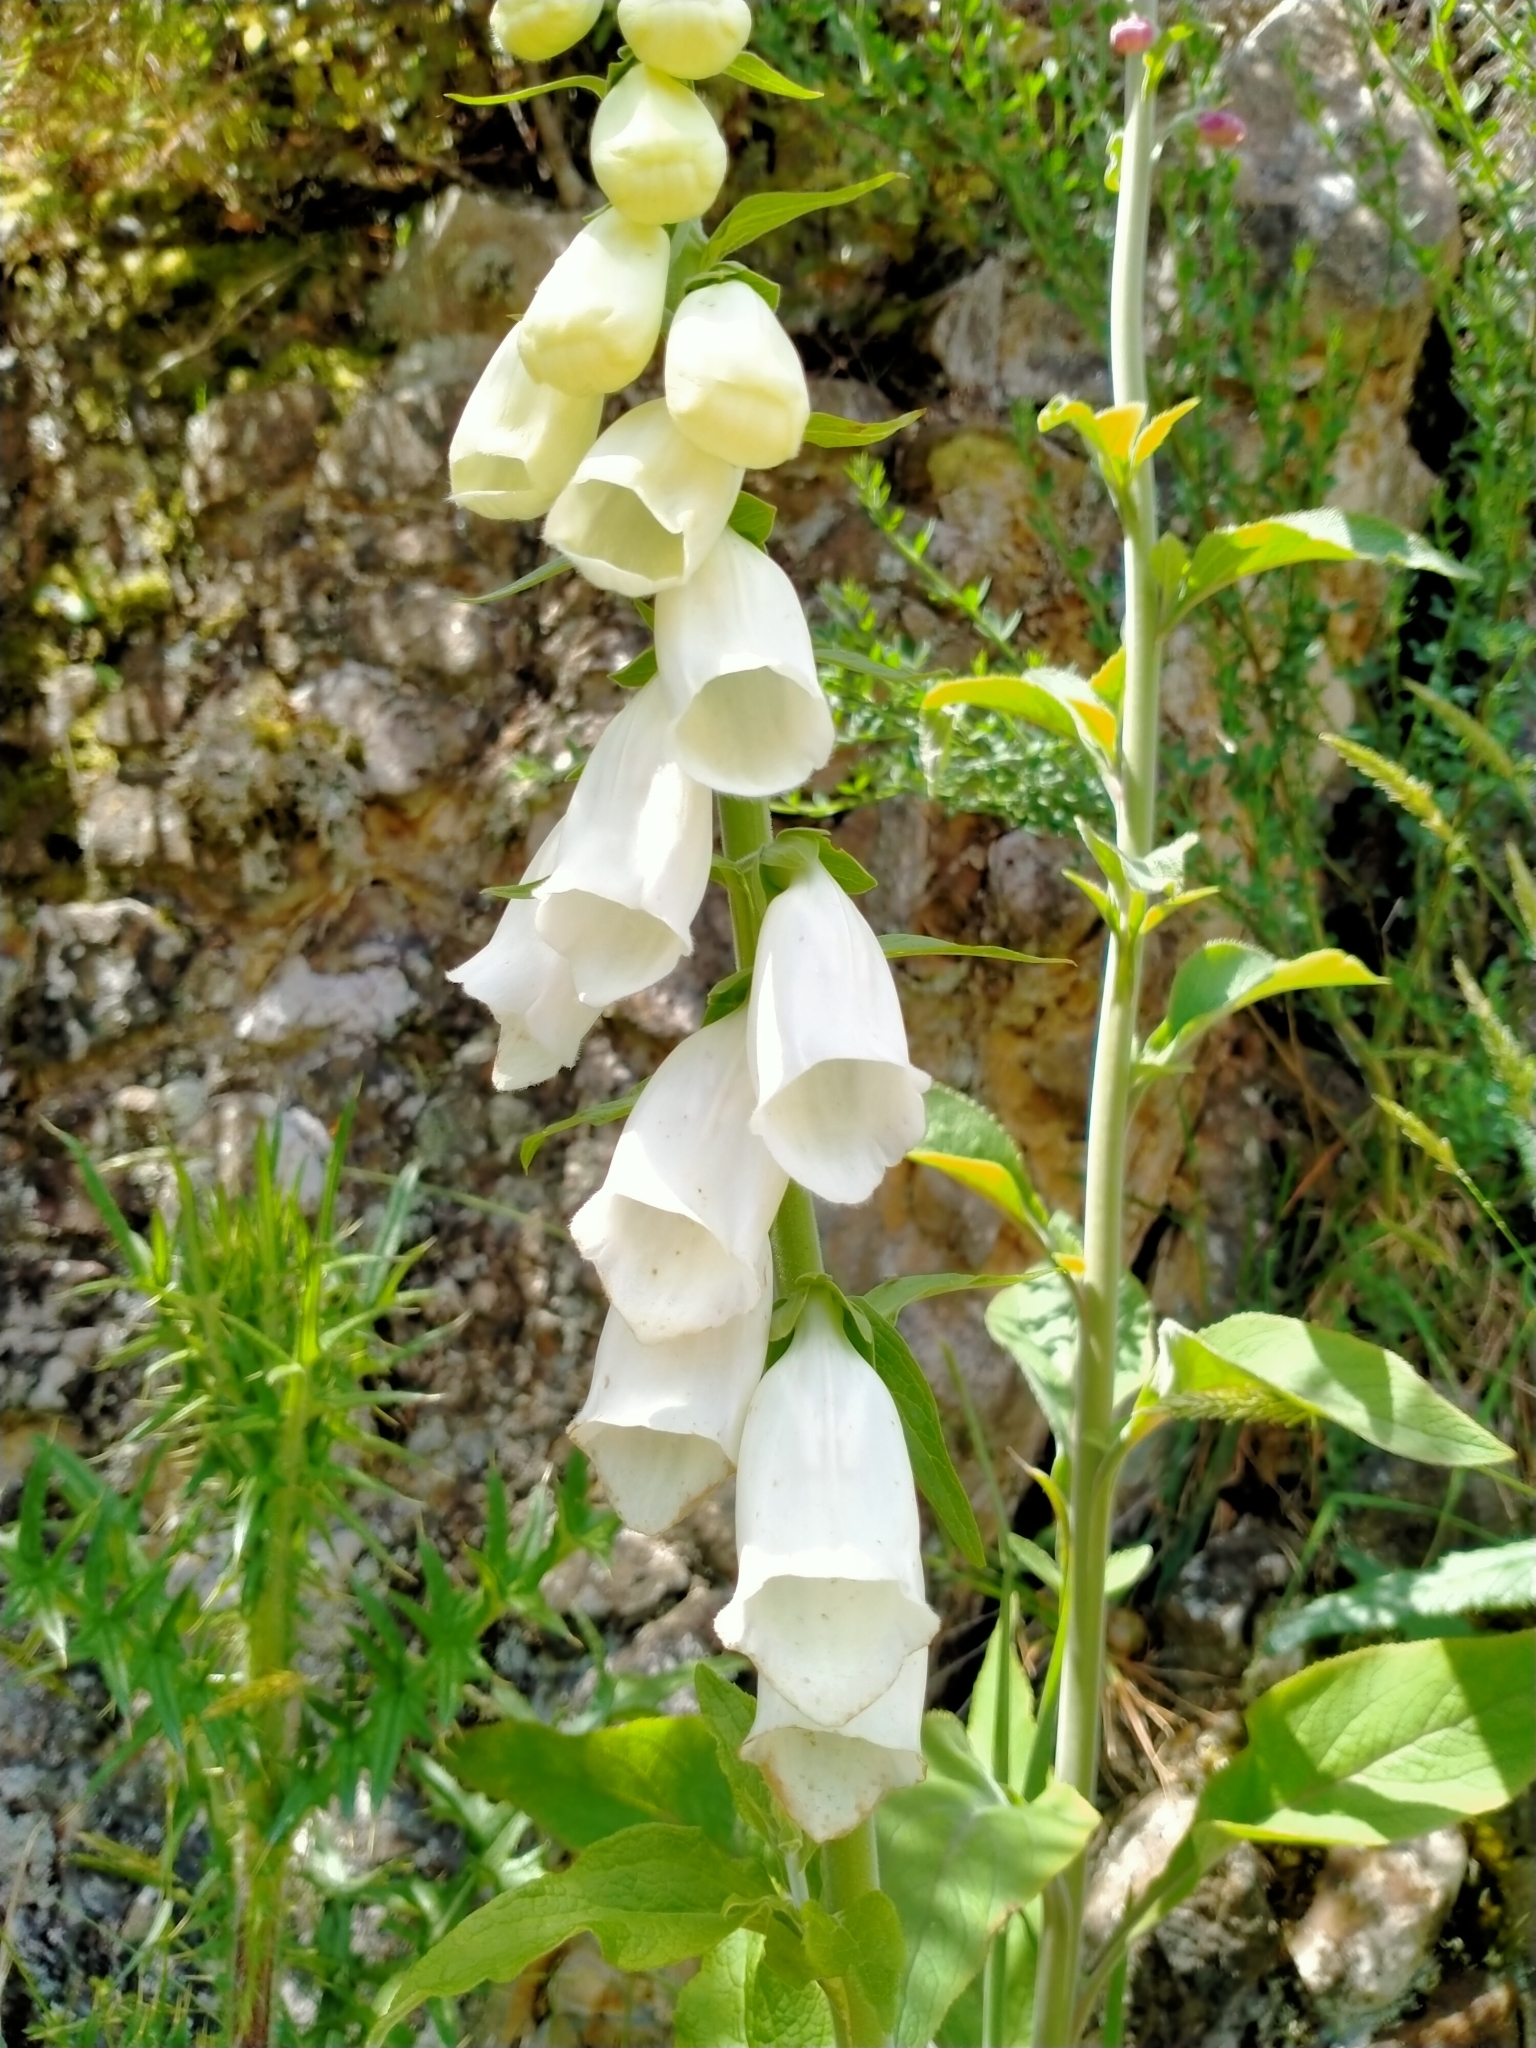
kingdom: Plantae
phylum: Tracheophyta
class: Magnoliopsida
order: Lamiales
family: Plantaginaceae
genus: Digitalis
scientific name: Digitalis purpurea
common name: Foxglove
